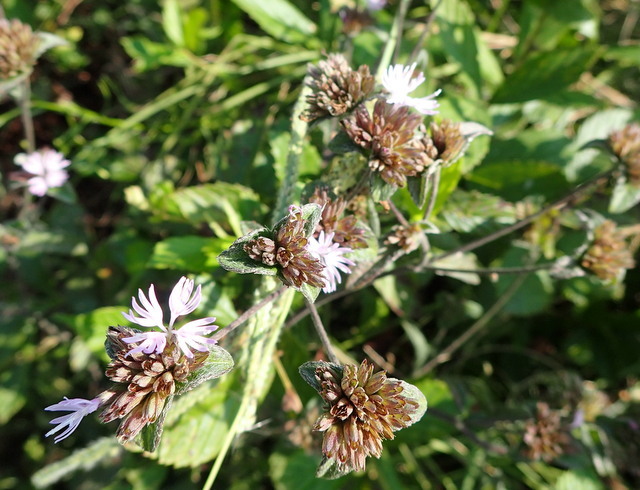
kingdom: Plantae
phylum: Tracheophyta
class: Magnoliopsida
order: Asterales
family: Asteraceae
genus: Elephantopus
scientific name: Elephantopus tomentosus
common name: Tobacco-weed
